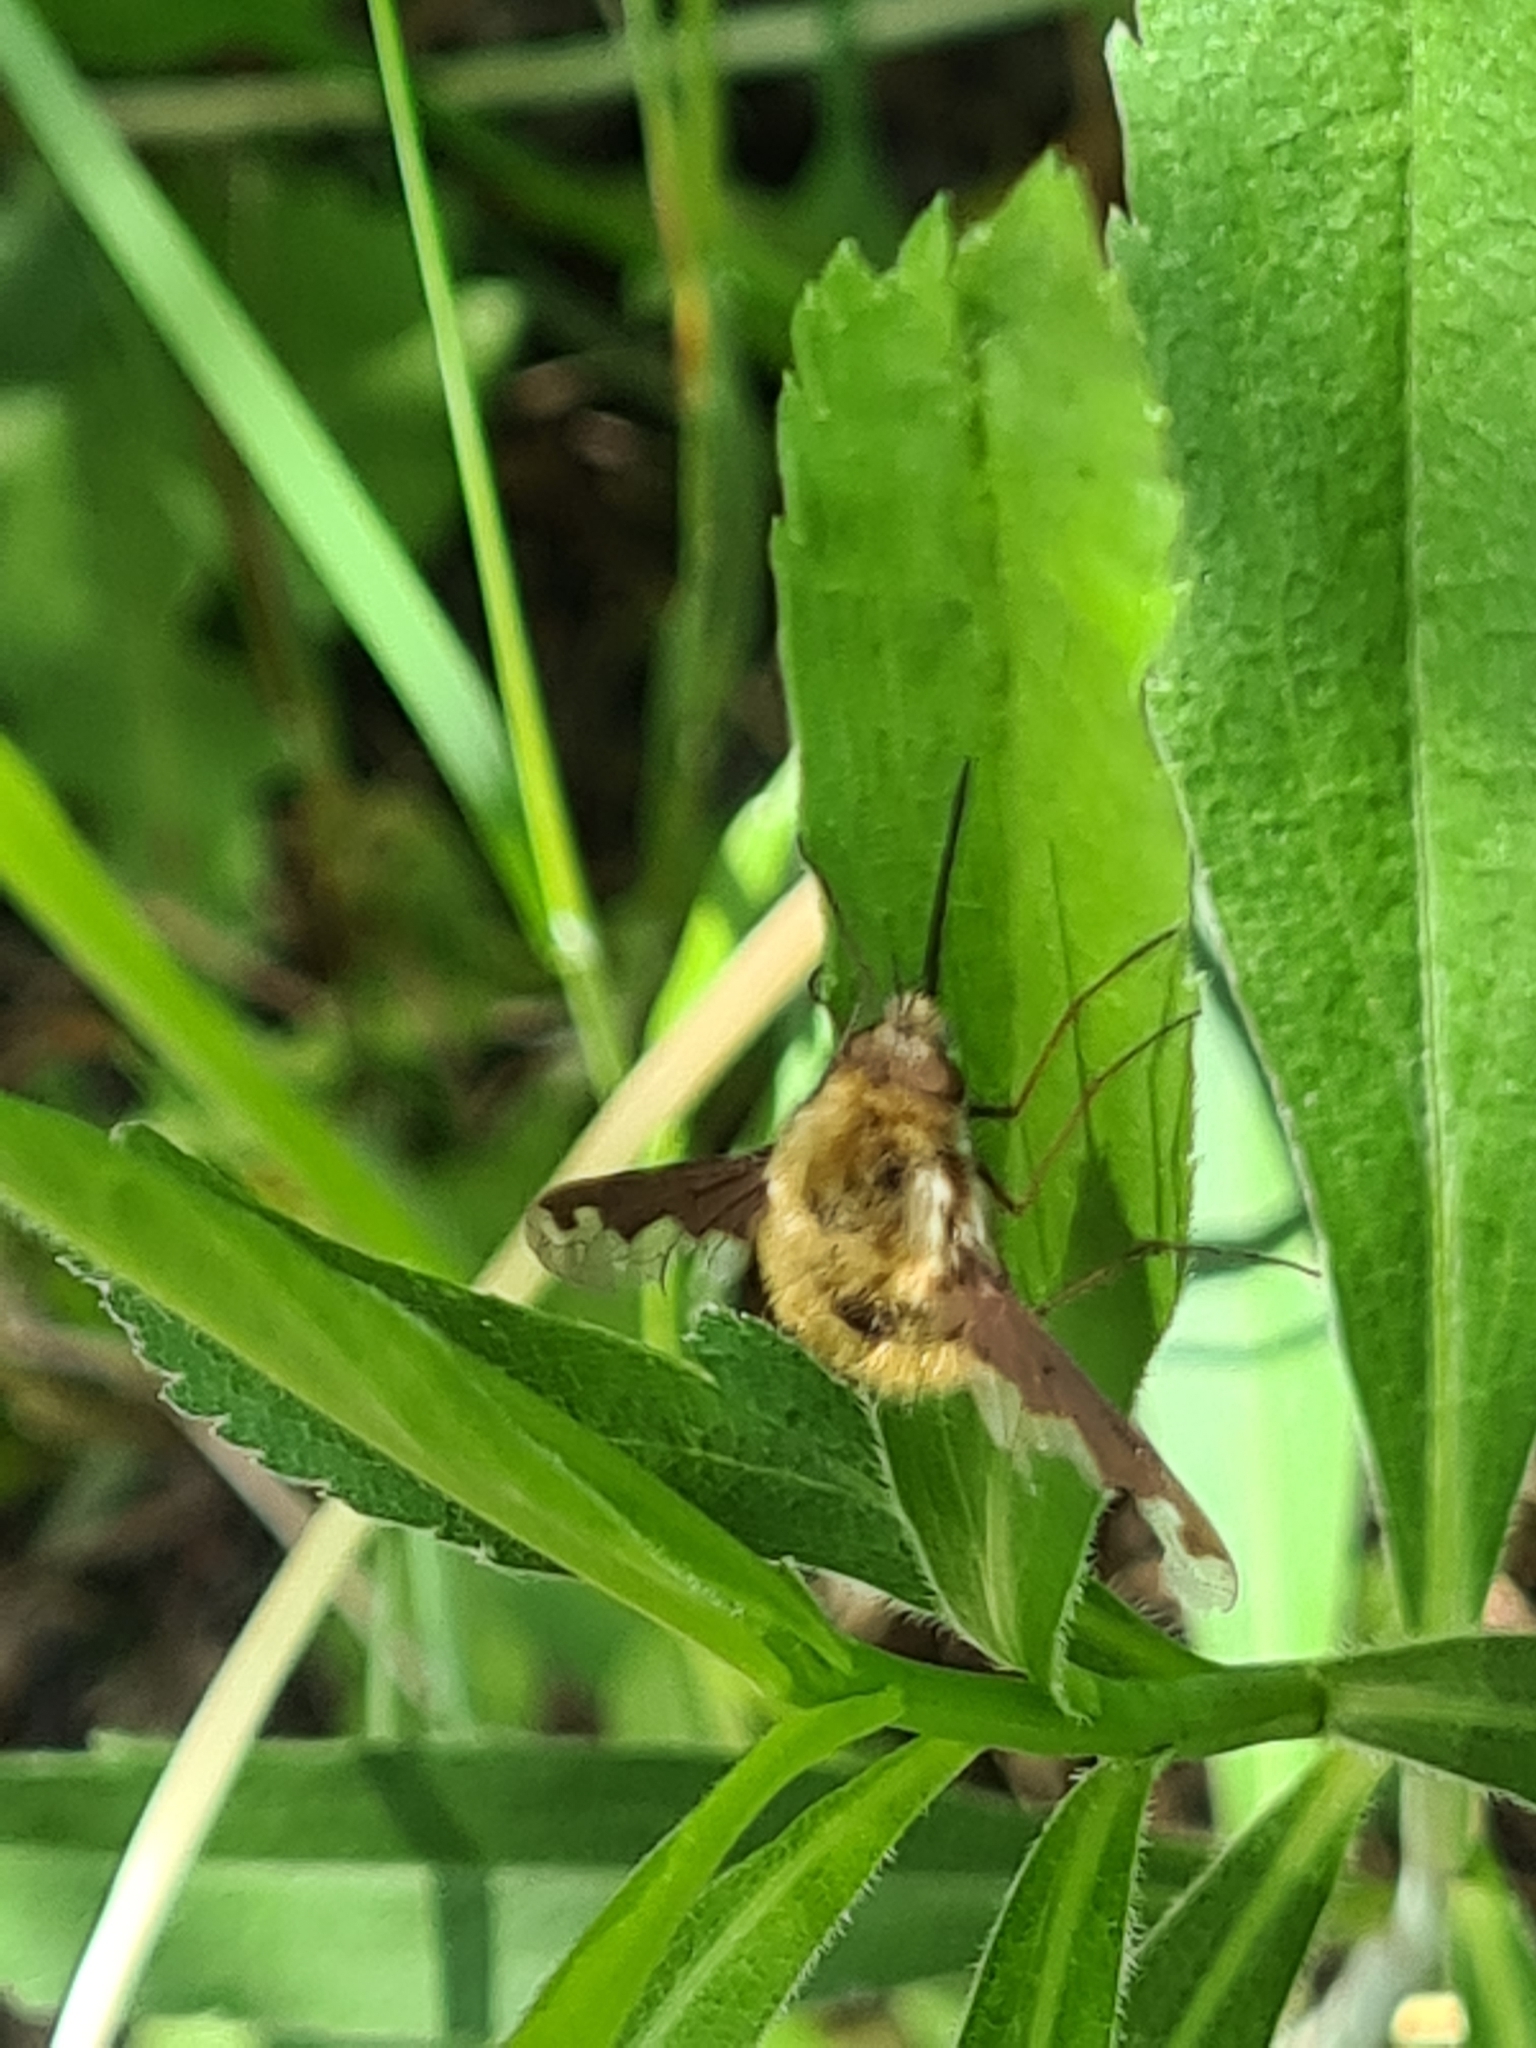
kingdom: Animalia
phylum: Arthropoda
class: Insecta
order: Diptera
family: Bombyliidae
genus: Bombylius
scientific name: Bombylius major
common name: Bee fly
